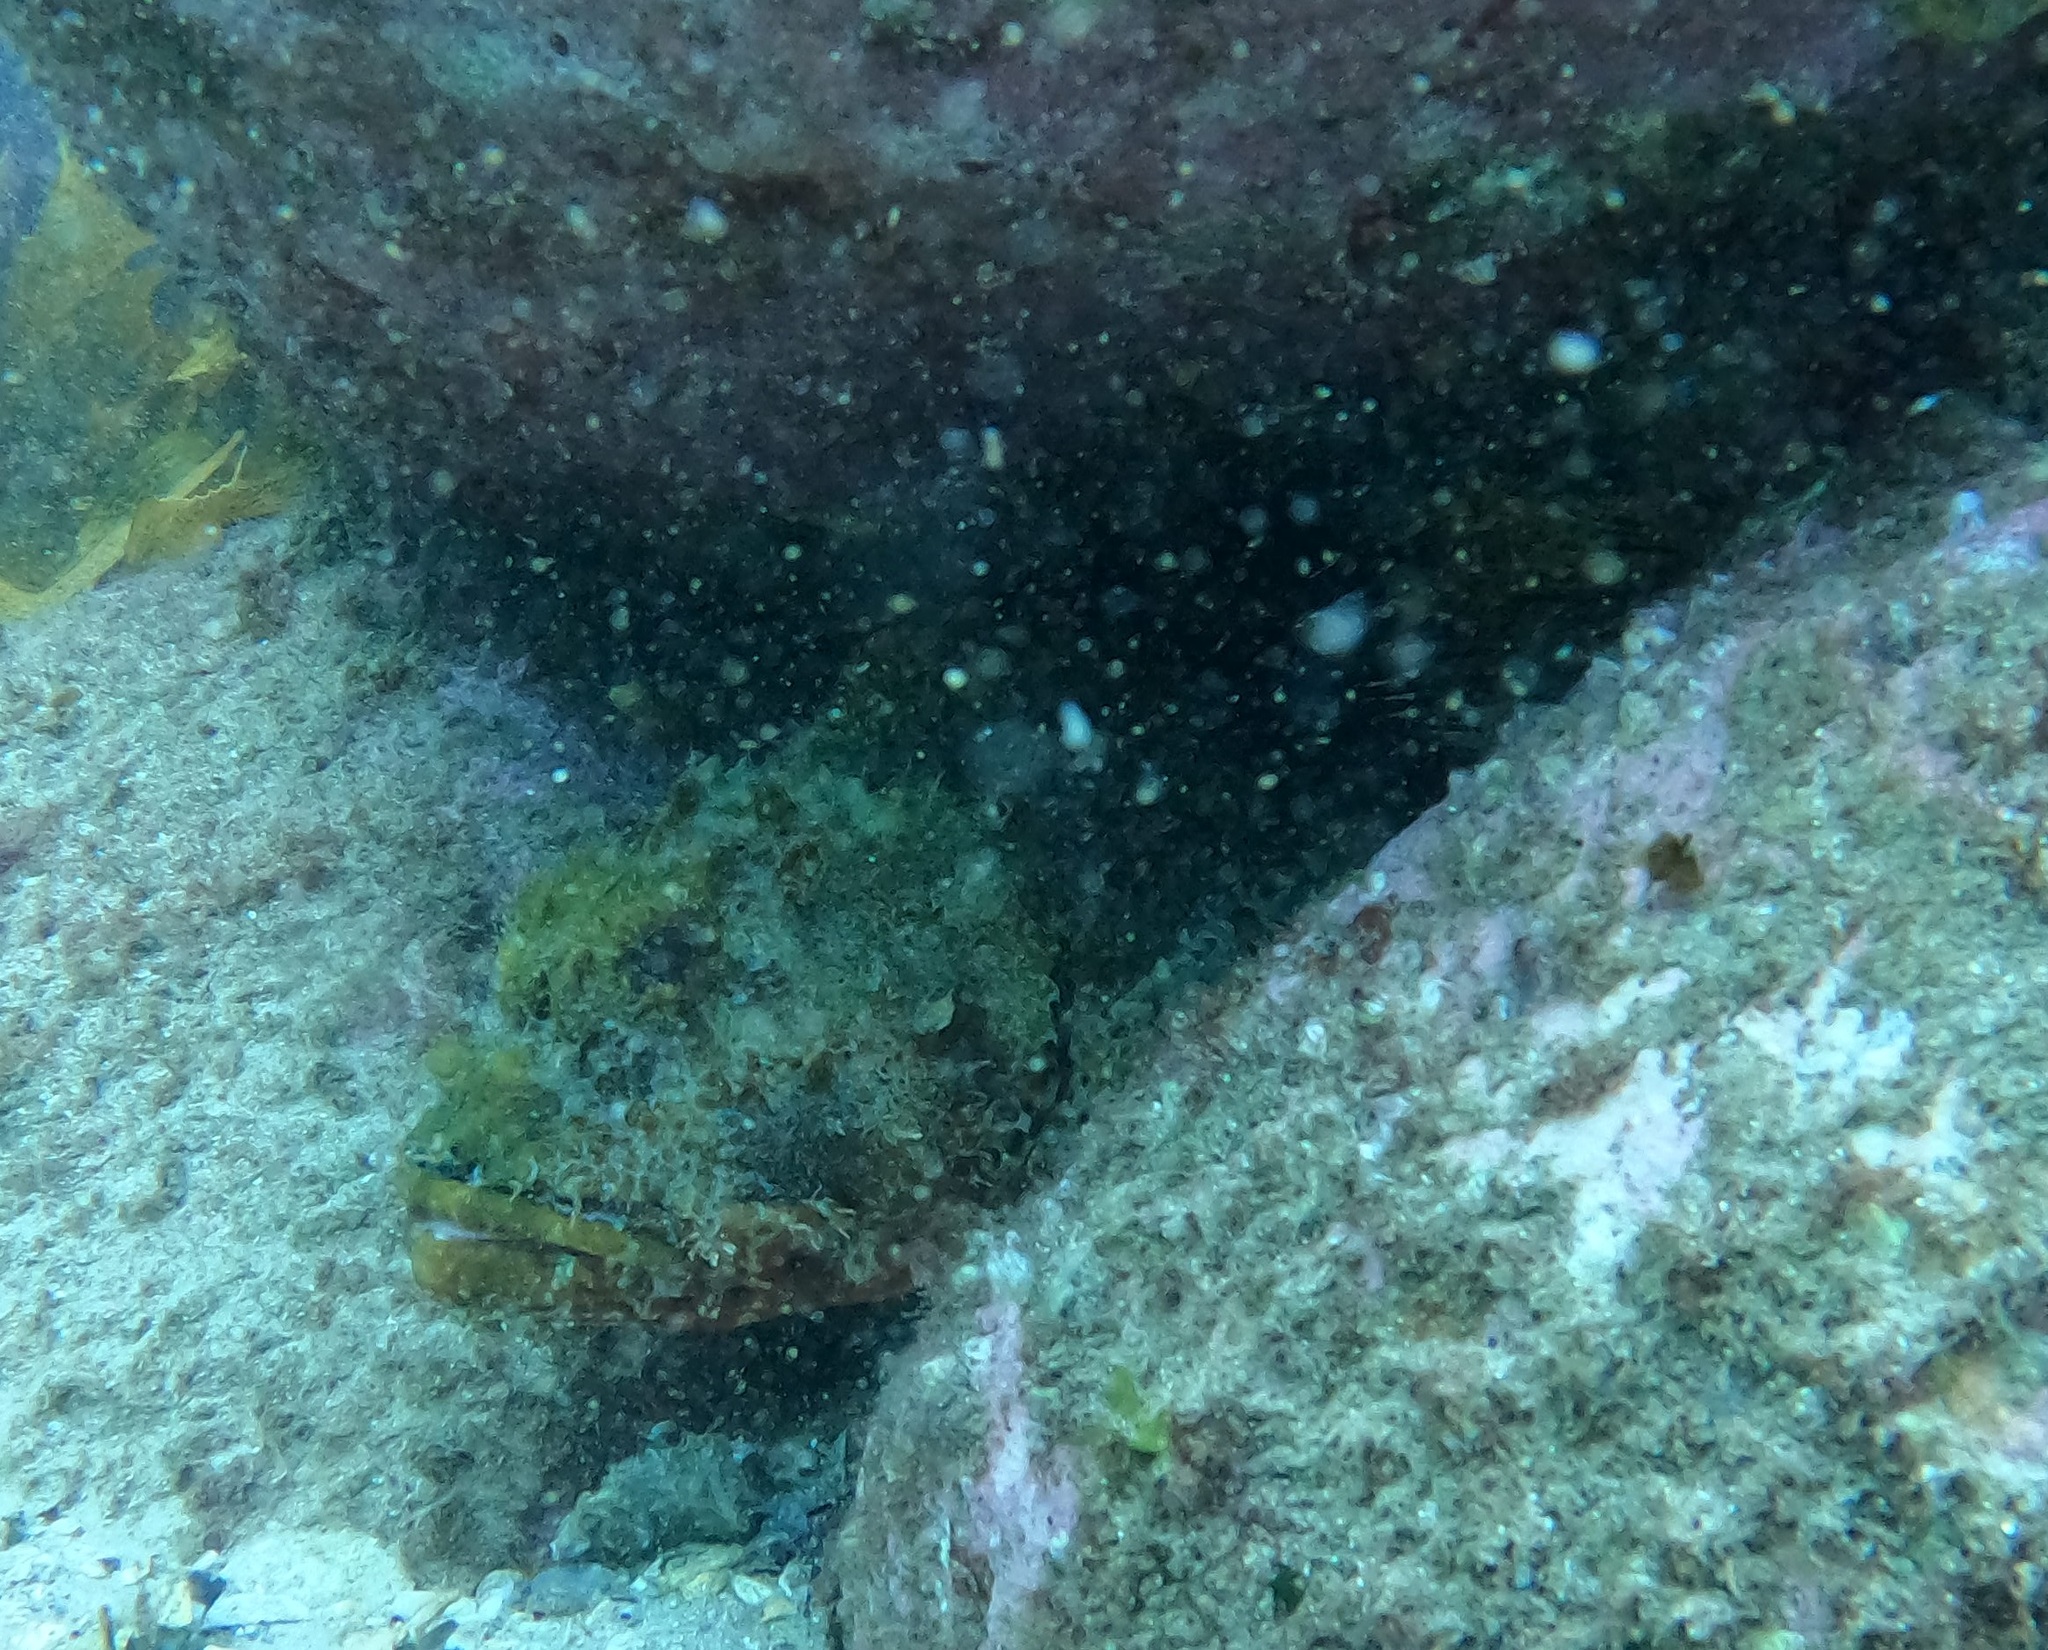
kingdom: Animalia
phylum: Chordata
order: Scorpaeniformes
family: Scorpaenidae
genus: Scorpaena
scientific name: Scorpaena jacksoniensis
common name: Eastern red scorpionfish
